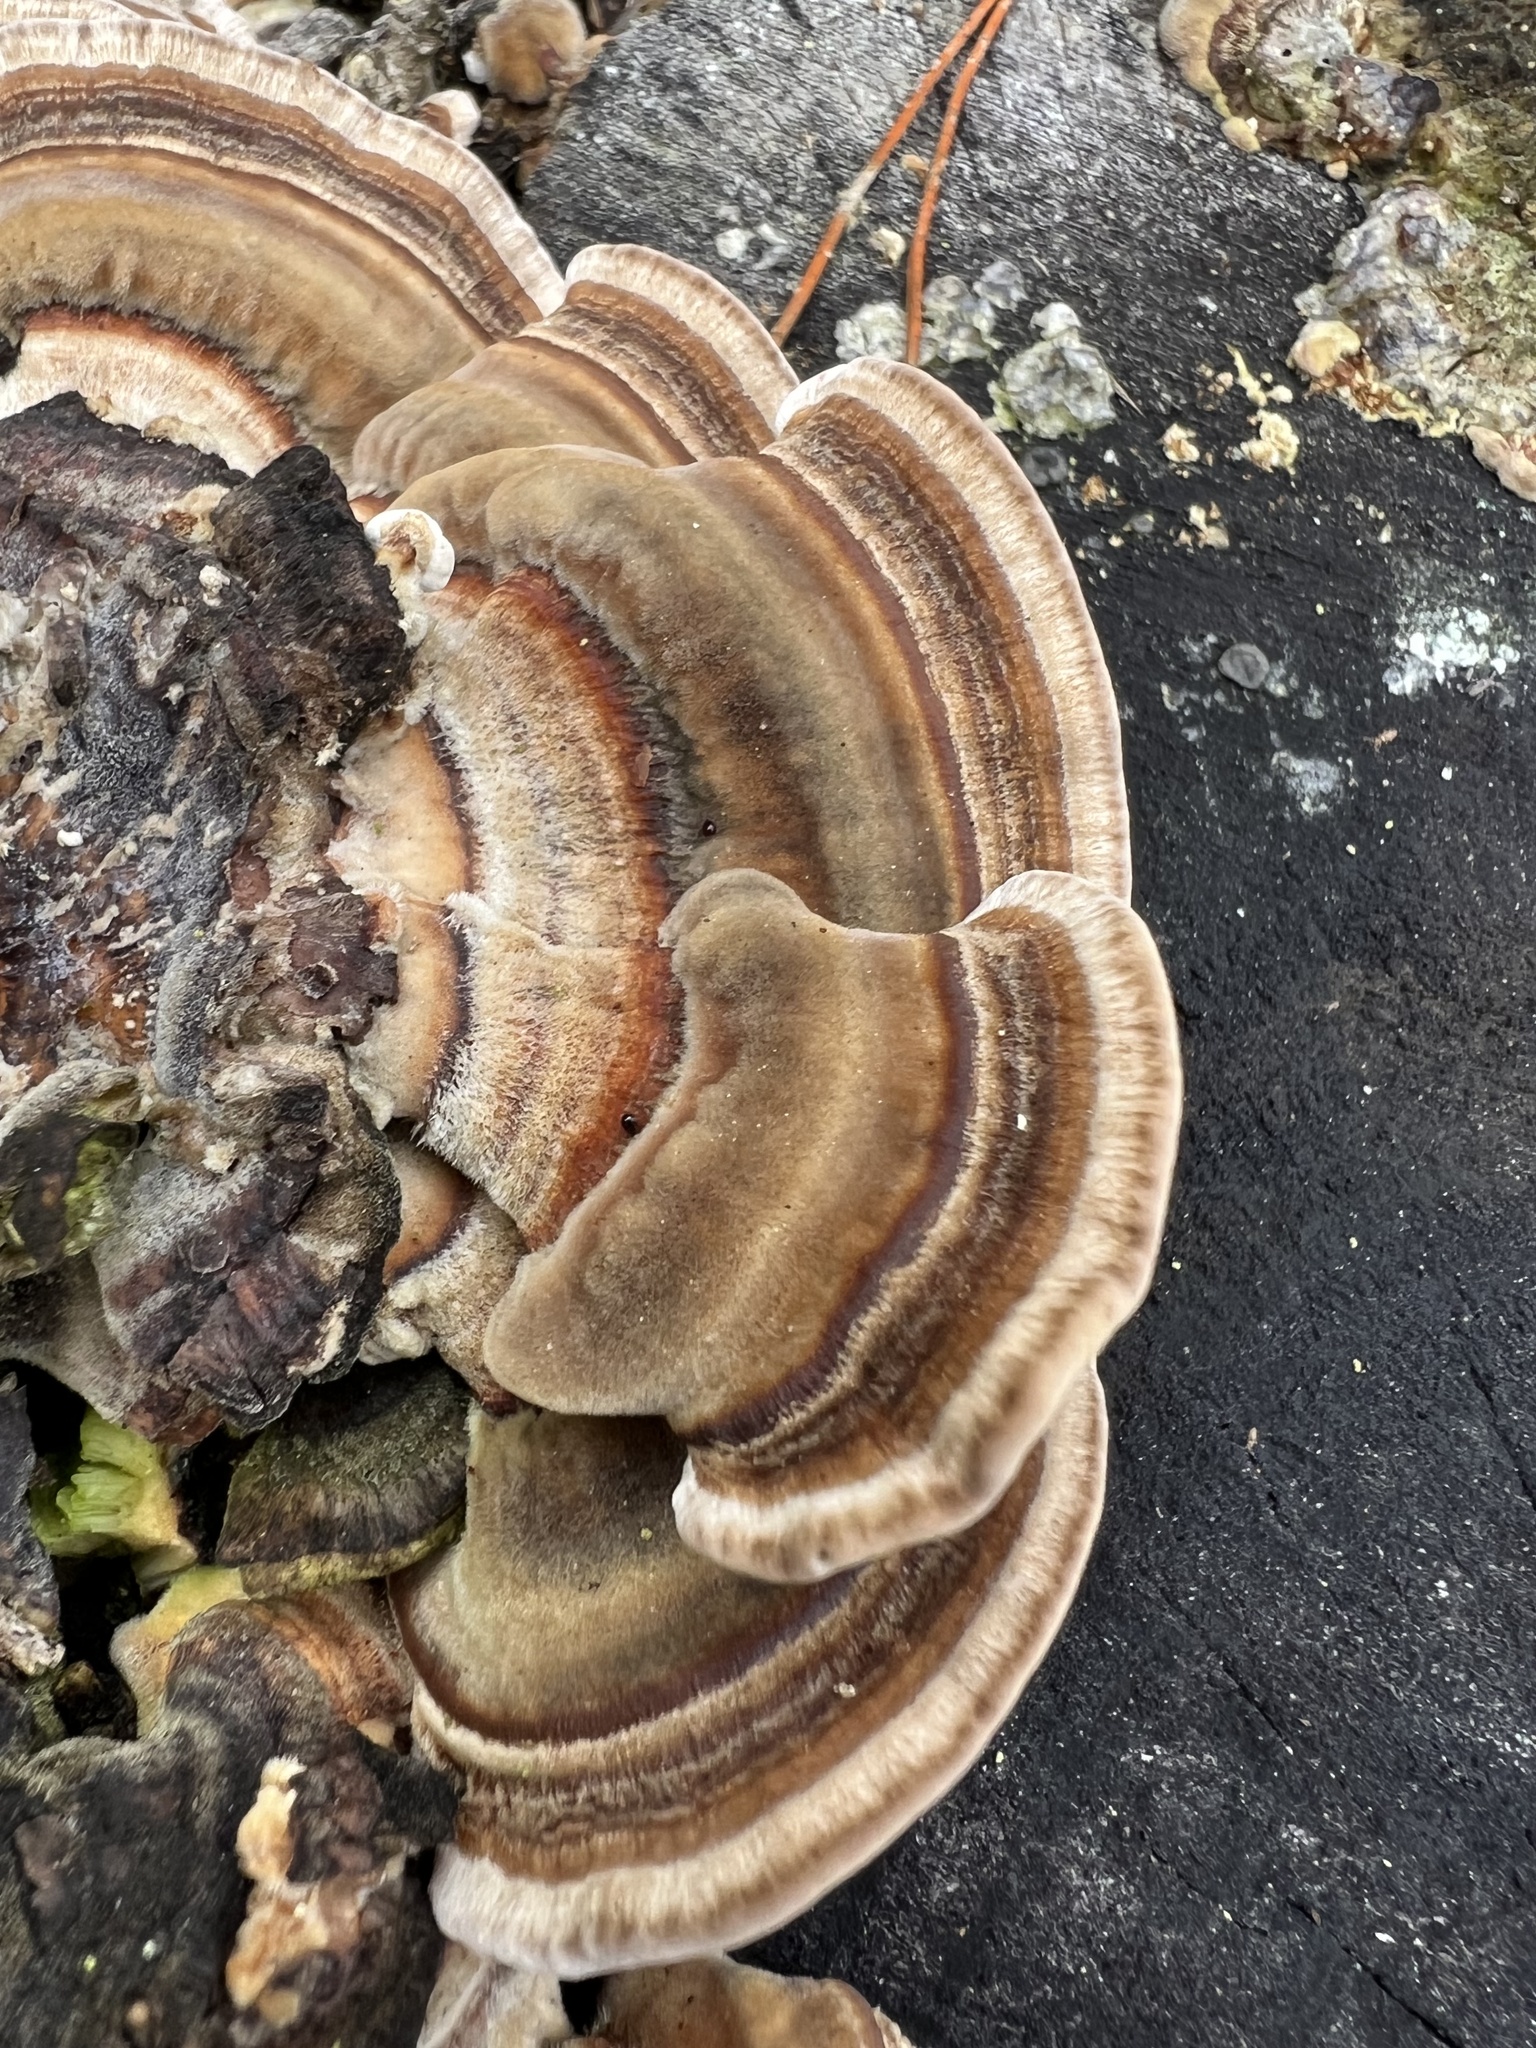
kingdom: Fungi
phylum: Basidiomycota
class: Agaricomycetes
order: Polyporales
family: Polyporaceae
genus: Trametes
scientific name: Trametes versicolor
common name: Turkeytail
